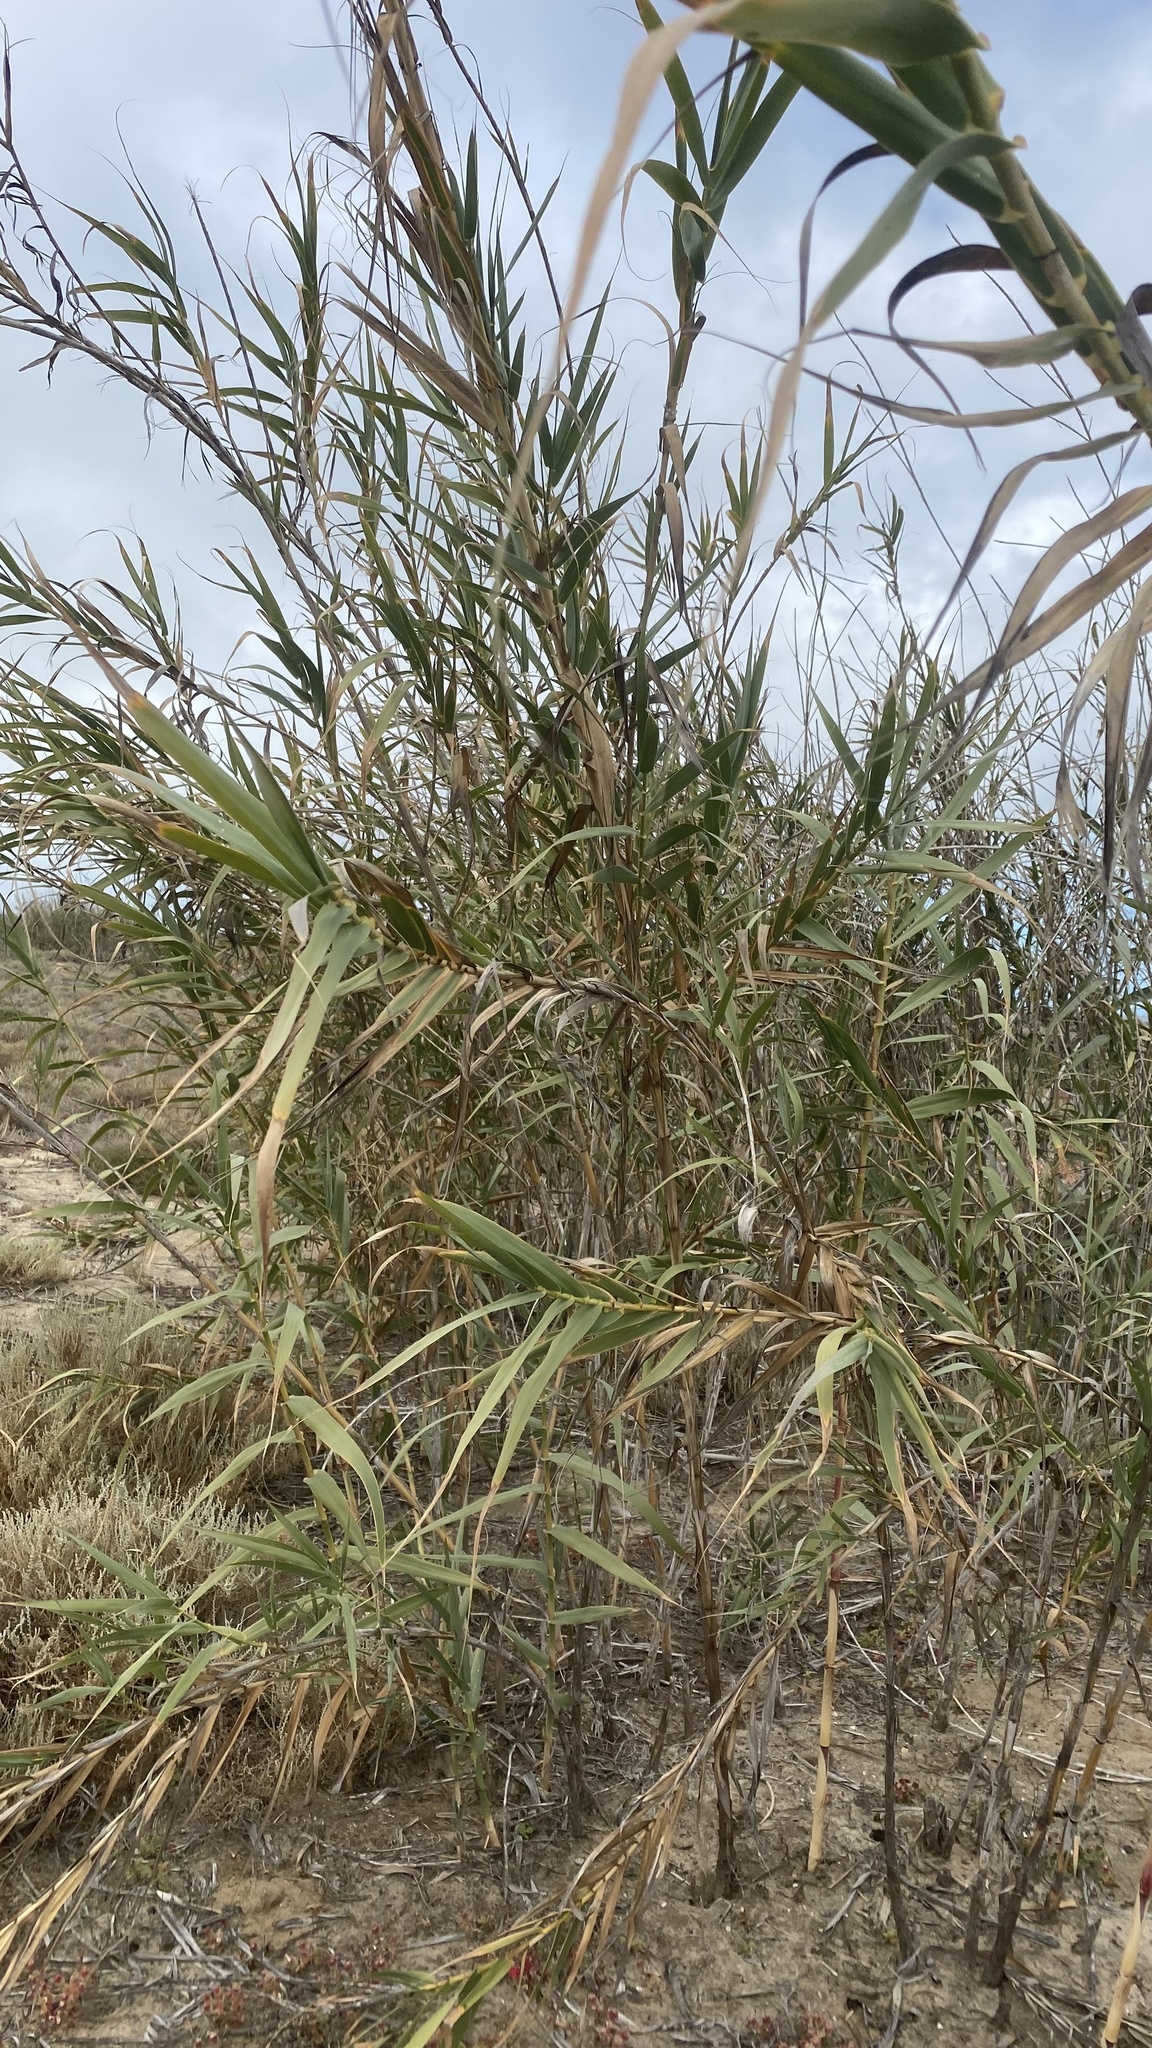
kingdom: Plantae
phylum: Tracheophyta
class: Liliopsida
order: Poales
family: Poaceae
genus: Arundo
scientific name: Arundo donax
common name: Giant reed
